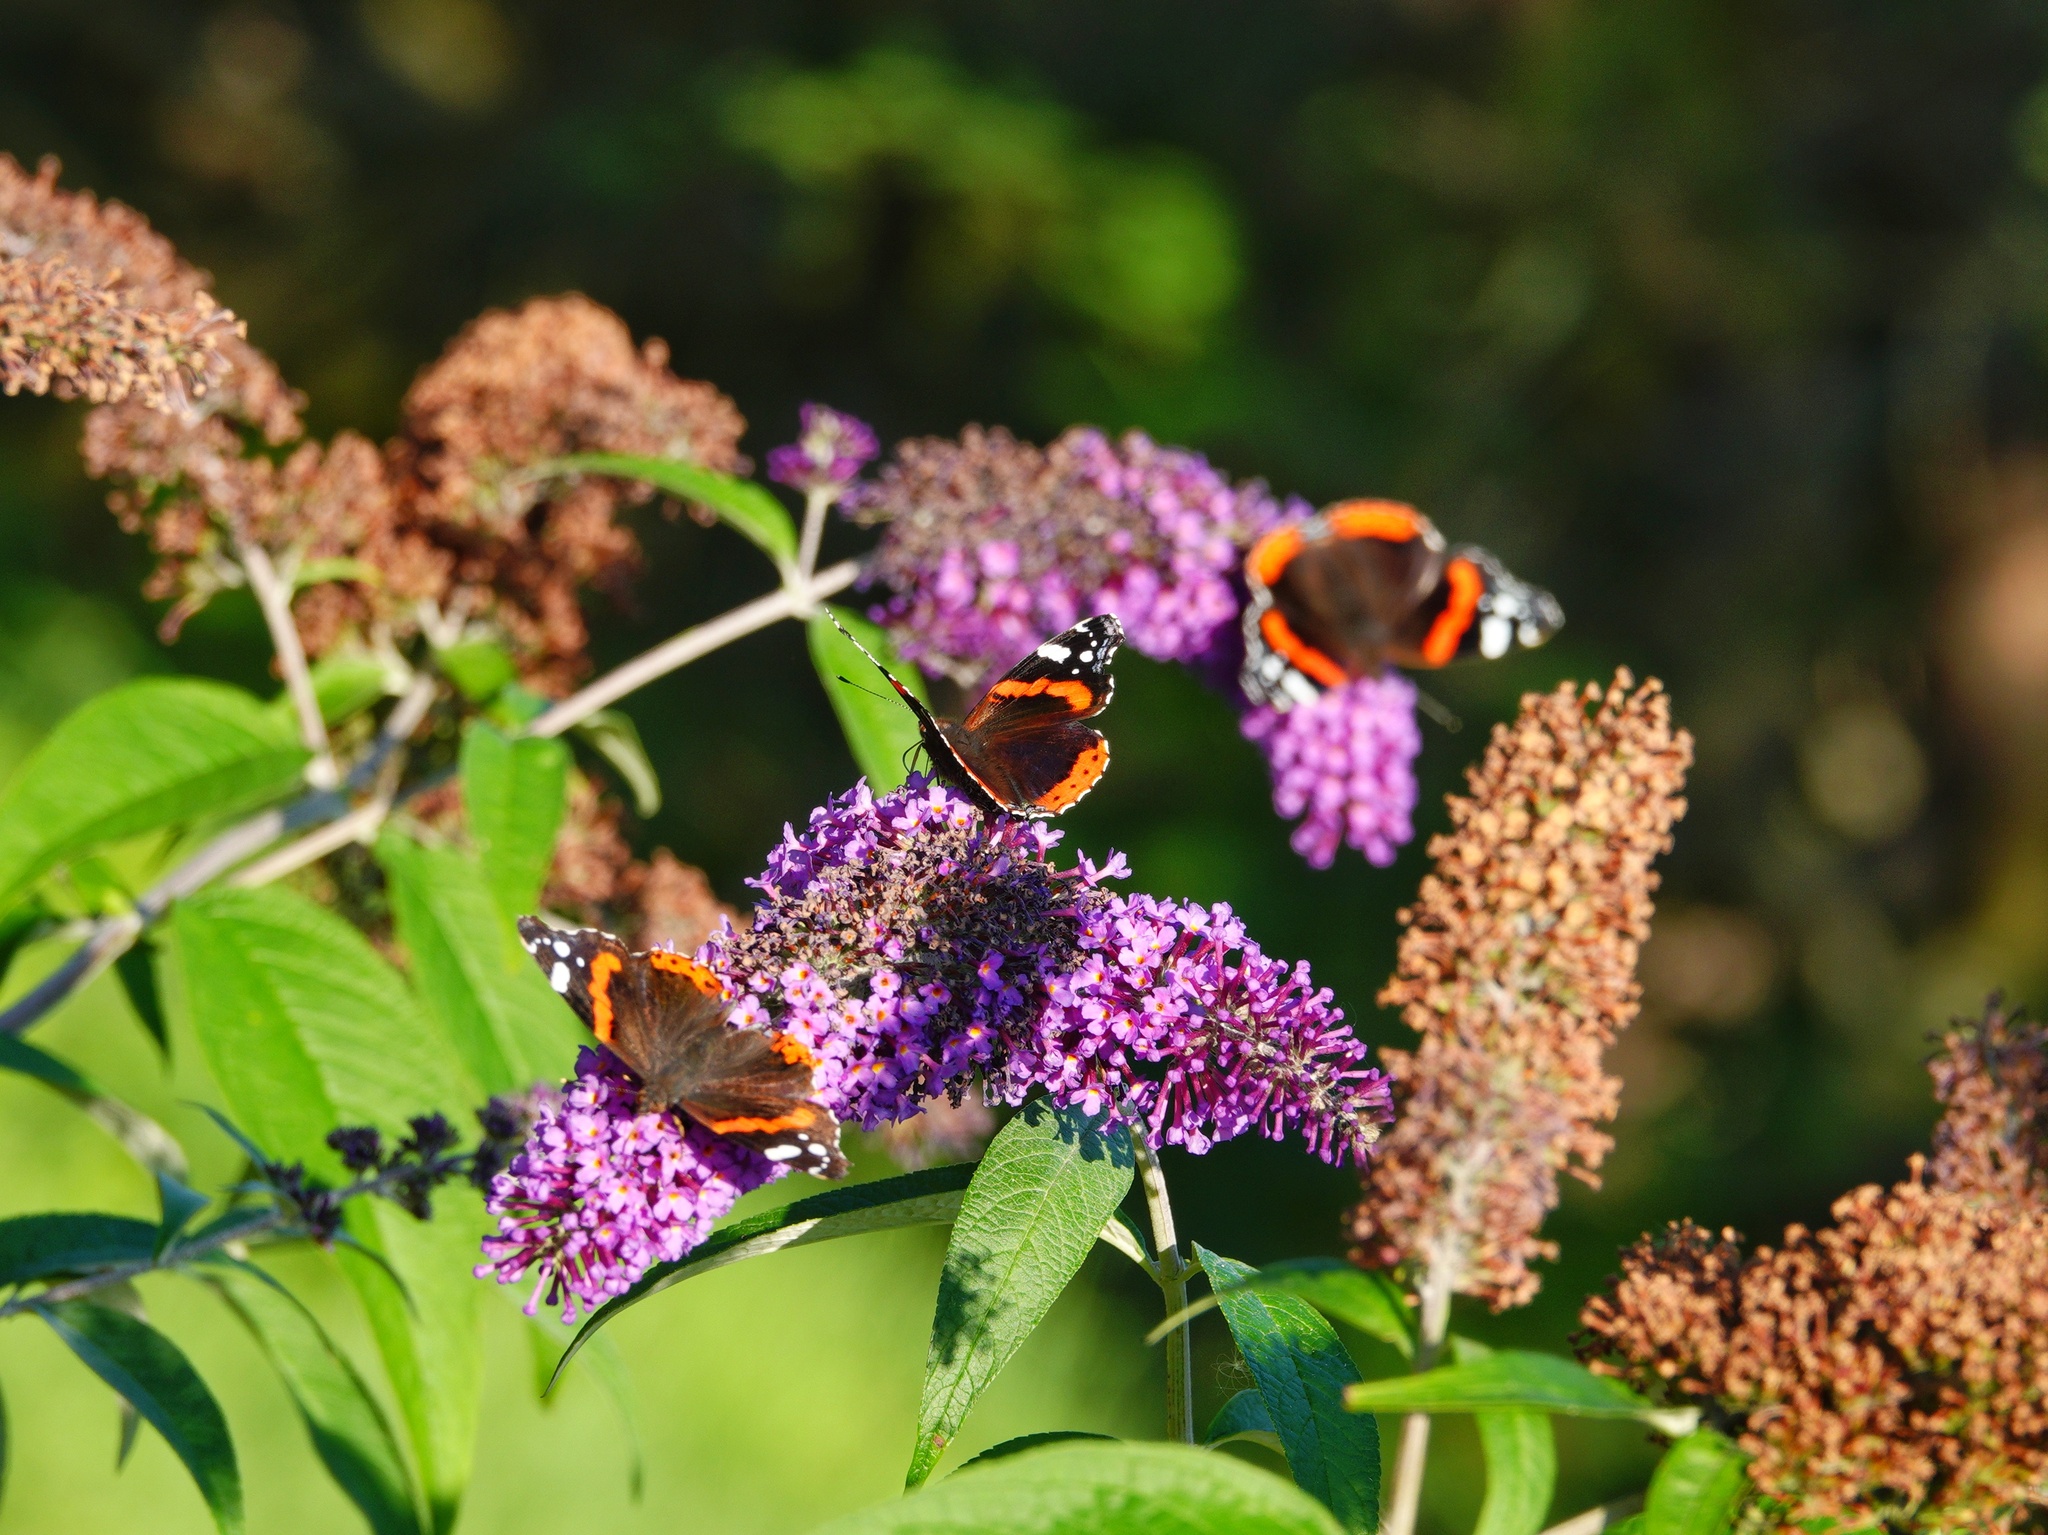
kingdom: Animalia
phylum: Arthropoda
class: Insecta
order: Lepidoptera
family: Nymphalidae
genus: Vanessa
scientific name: Vanessa atalanta
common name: Red admiral
